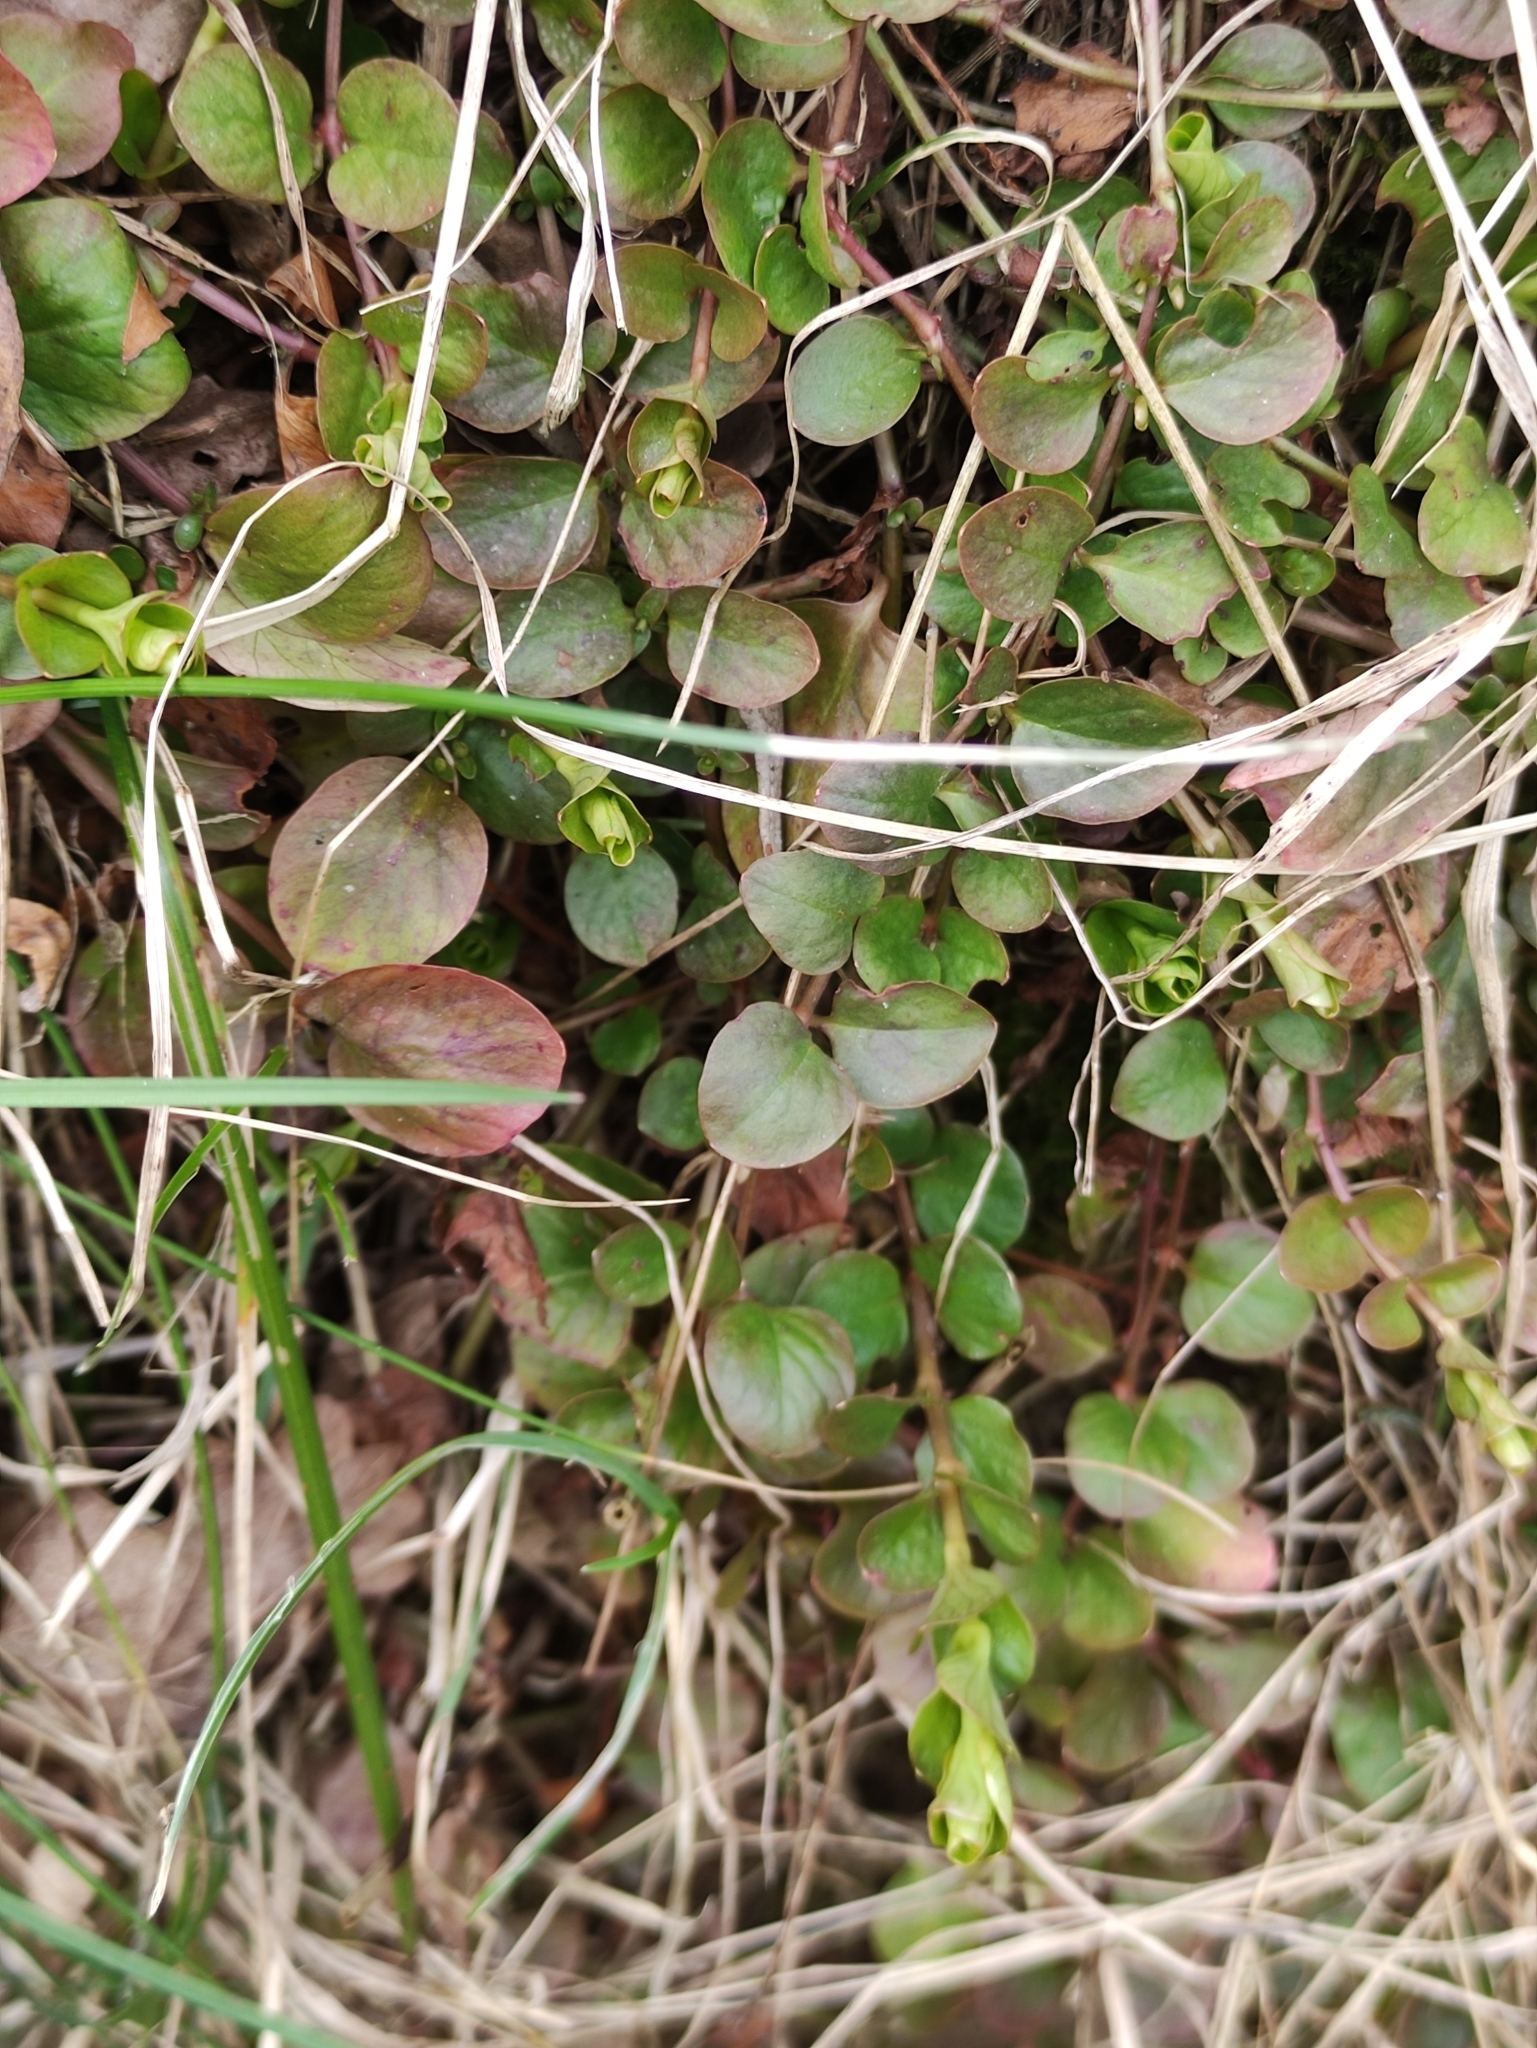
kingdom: Plantae
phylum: Tracheophyta
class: Magnoliopsida
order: Ericales
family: Primulaceae
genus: Lysimachia
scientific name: Lysimachia nummularia
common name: Moneywort
